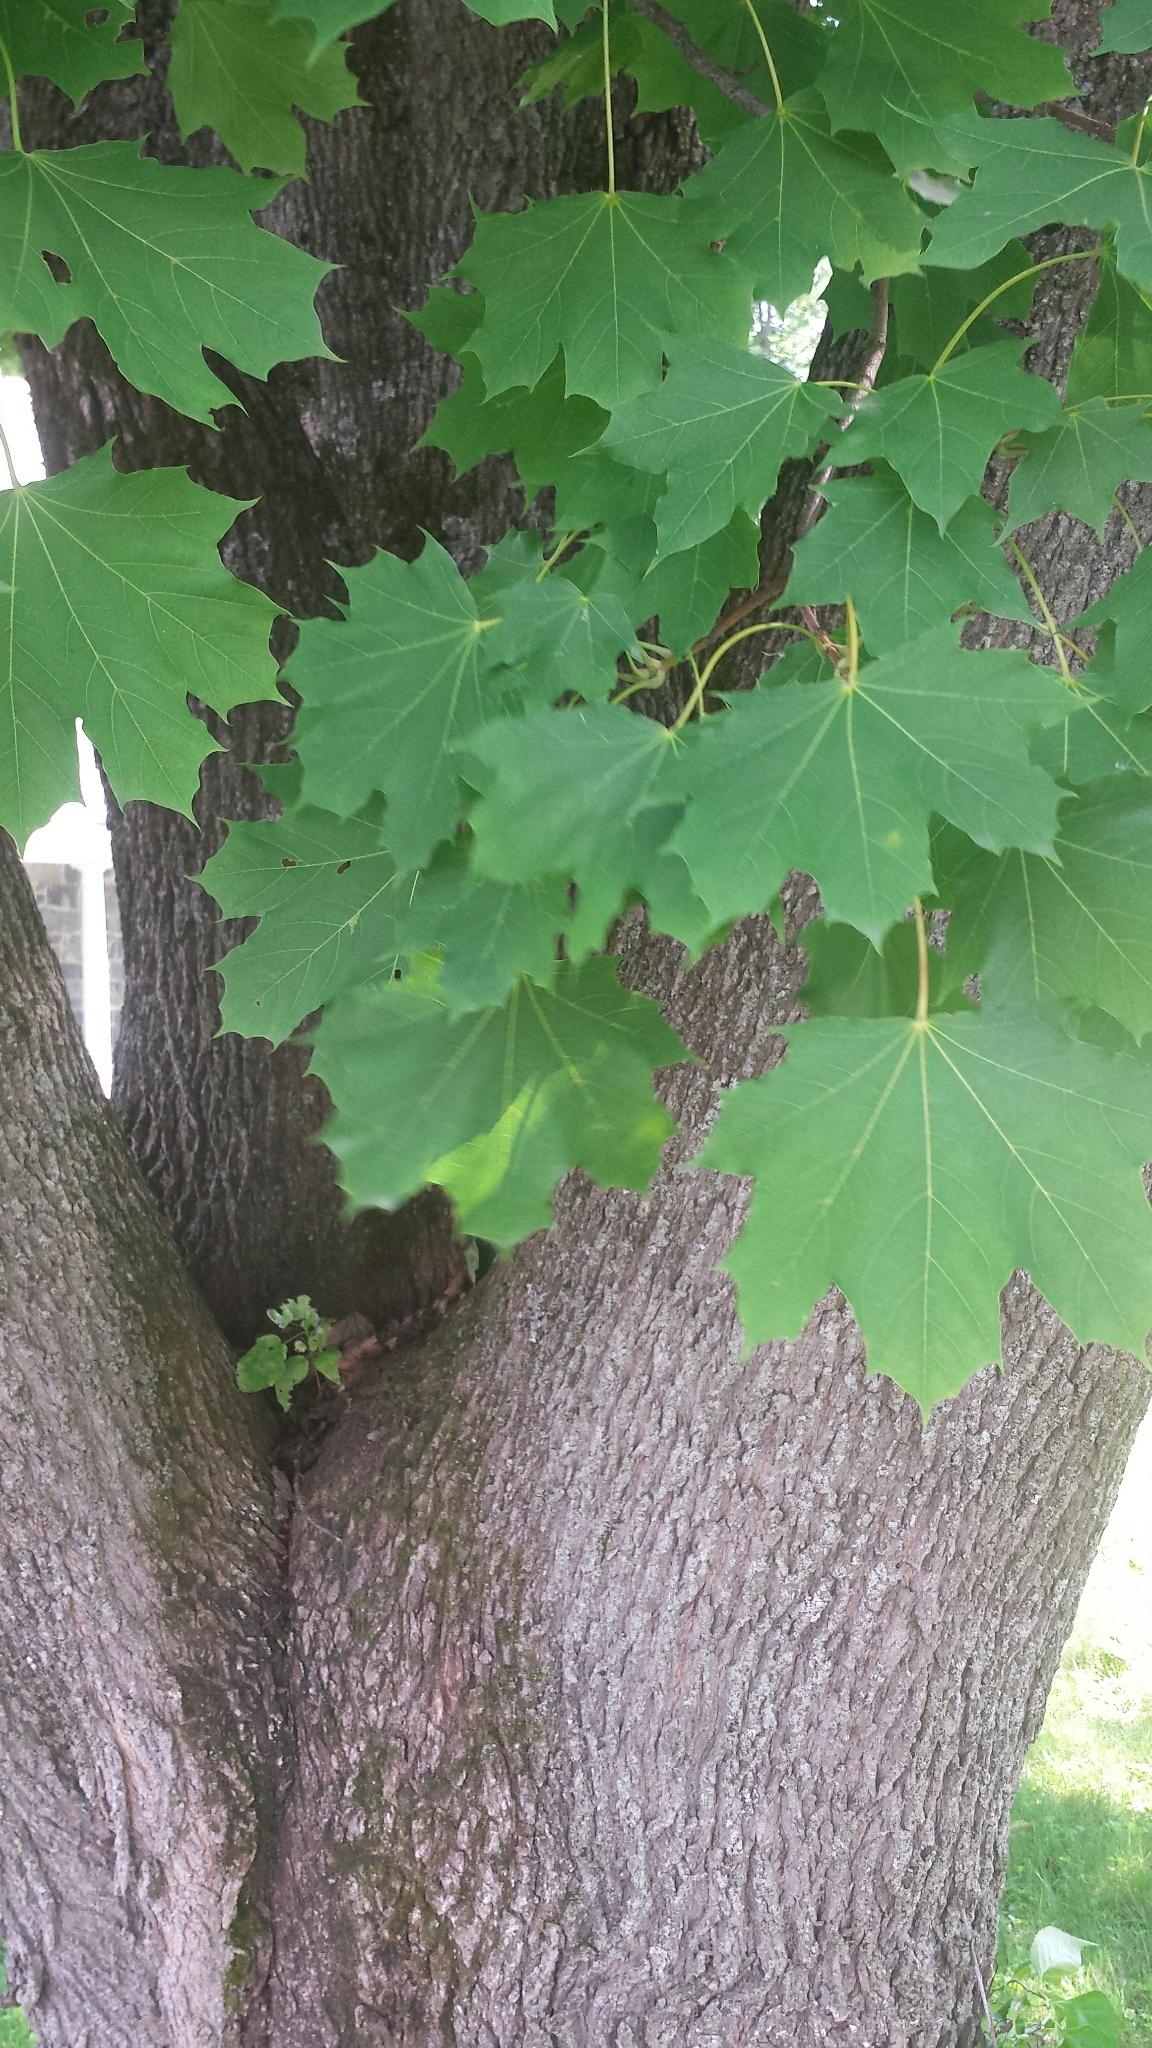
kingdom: Plantae
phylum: Tracheophyta
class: Magnoliopsida
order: Sapindales
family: Sapindaceae
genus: Acer
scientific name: Acer platanoides
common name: Norway maple
